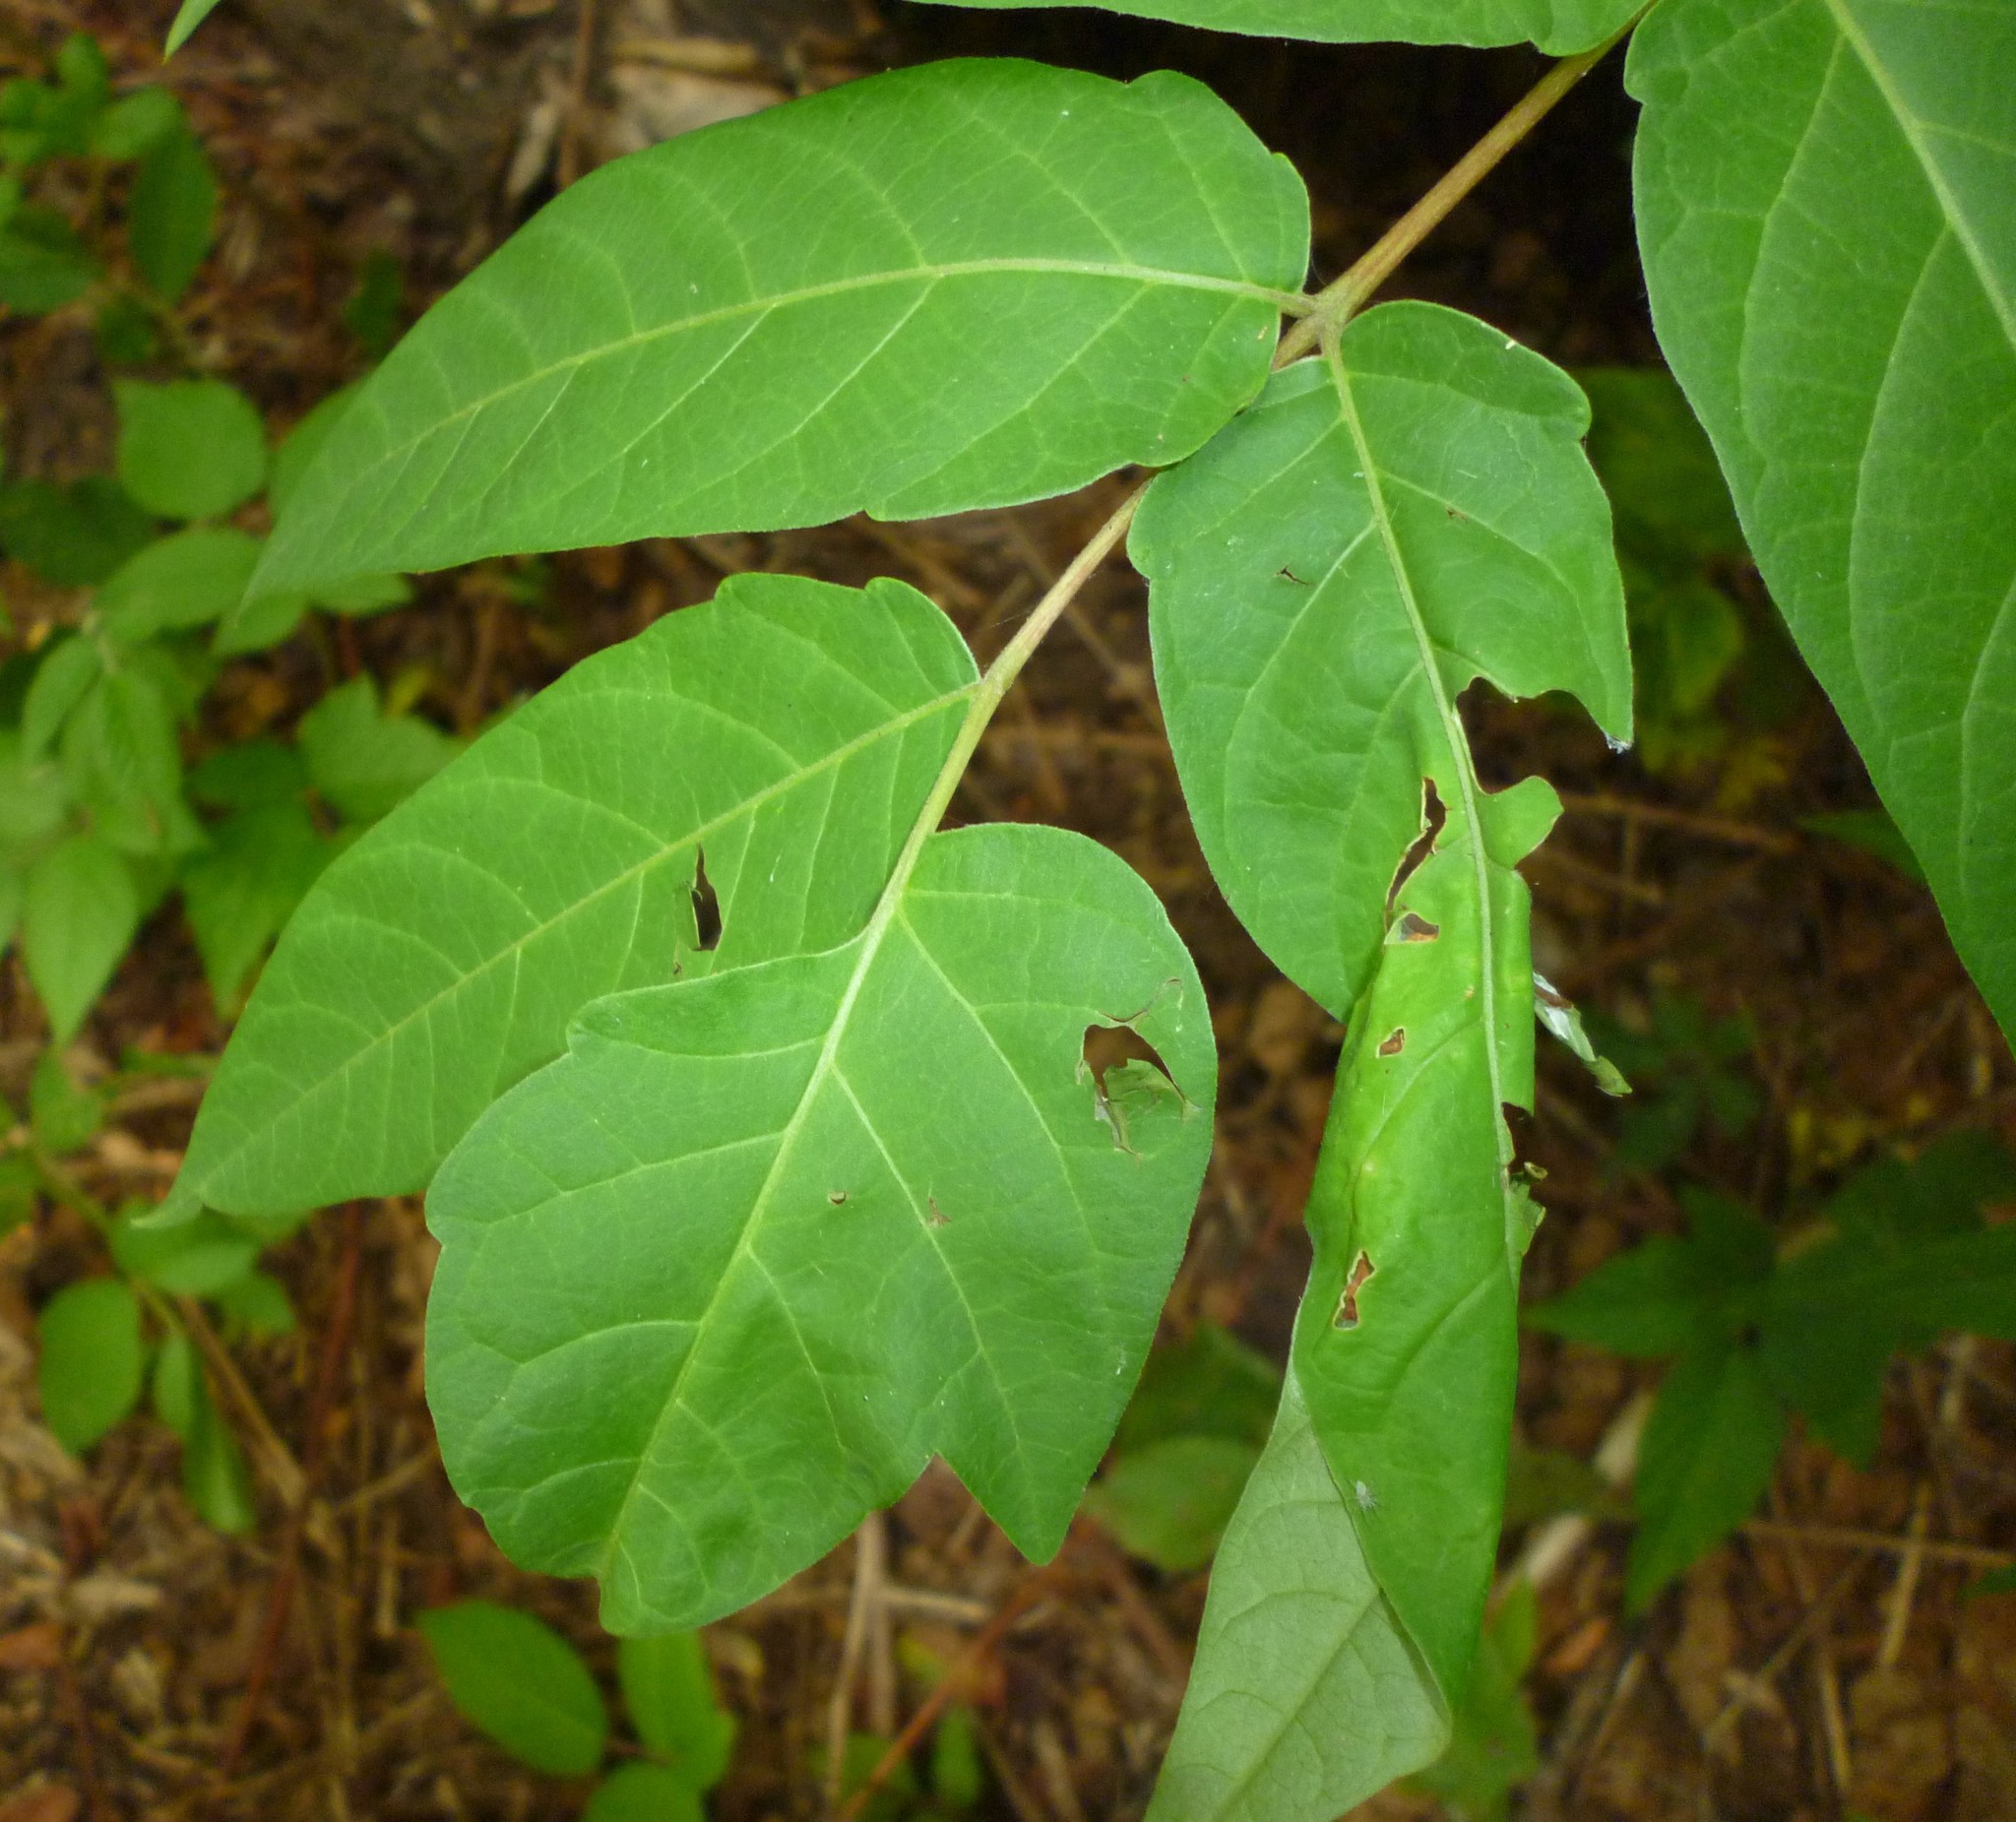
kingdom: Plantae
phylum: Tracheophyta
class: Magnoliopsida
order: Sapindales
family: Simaroubaceae
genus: Ailanthus
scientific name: Ailanthus altissima
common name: Tree-of-heaven
